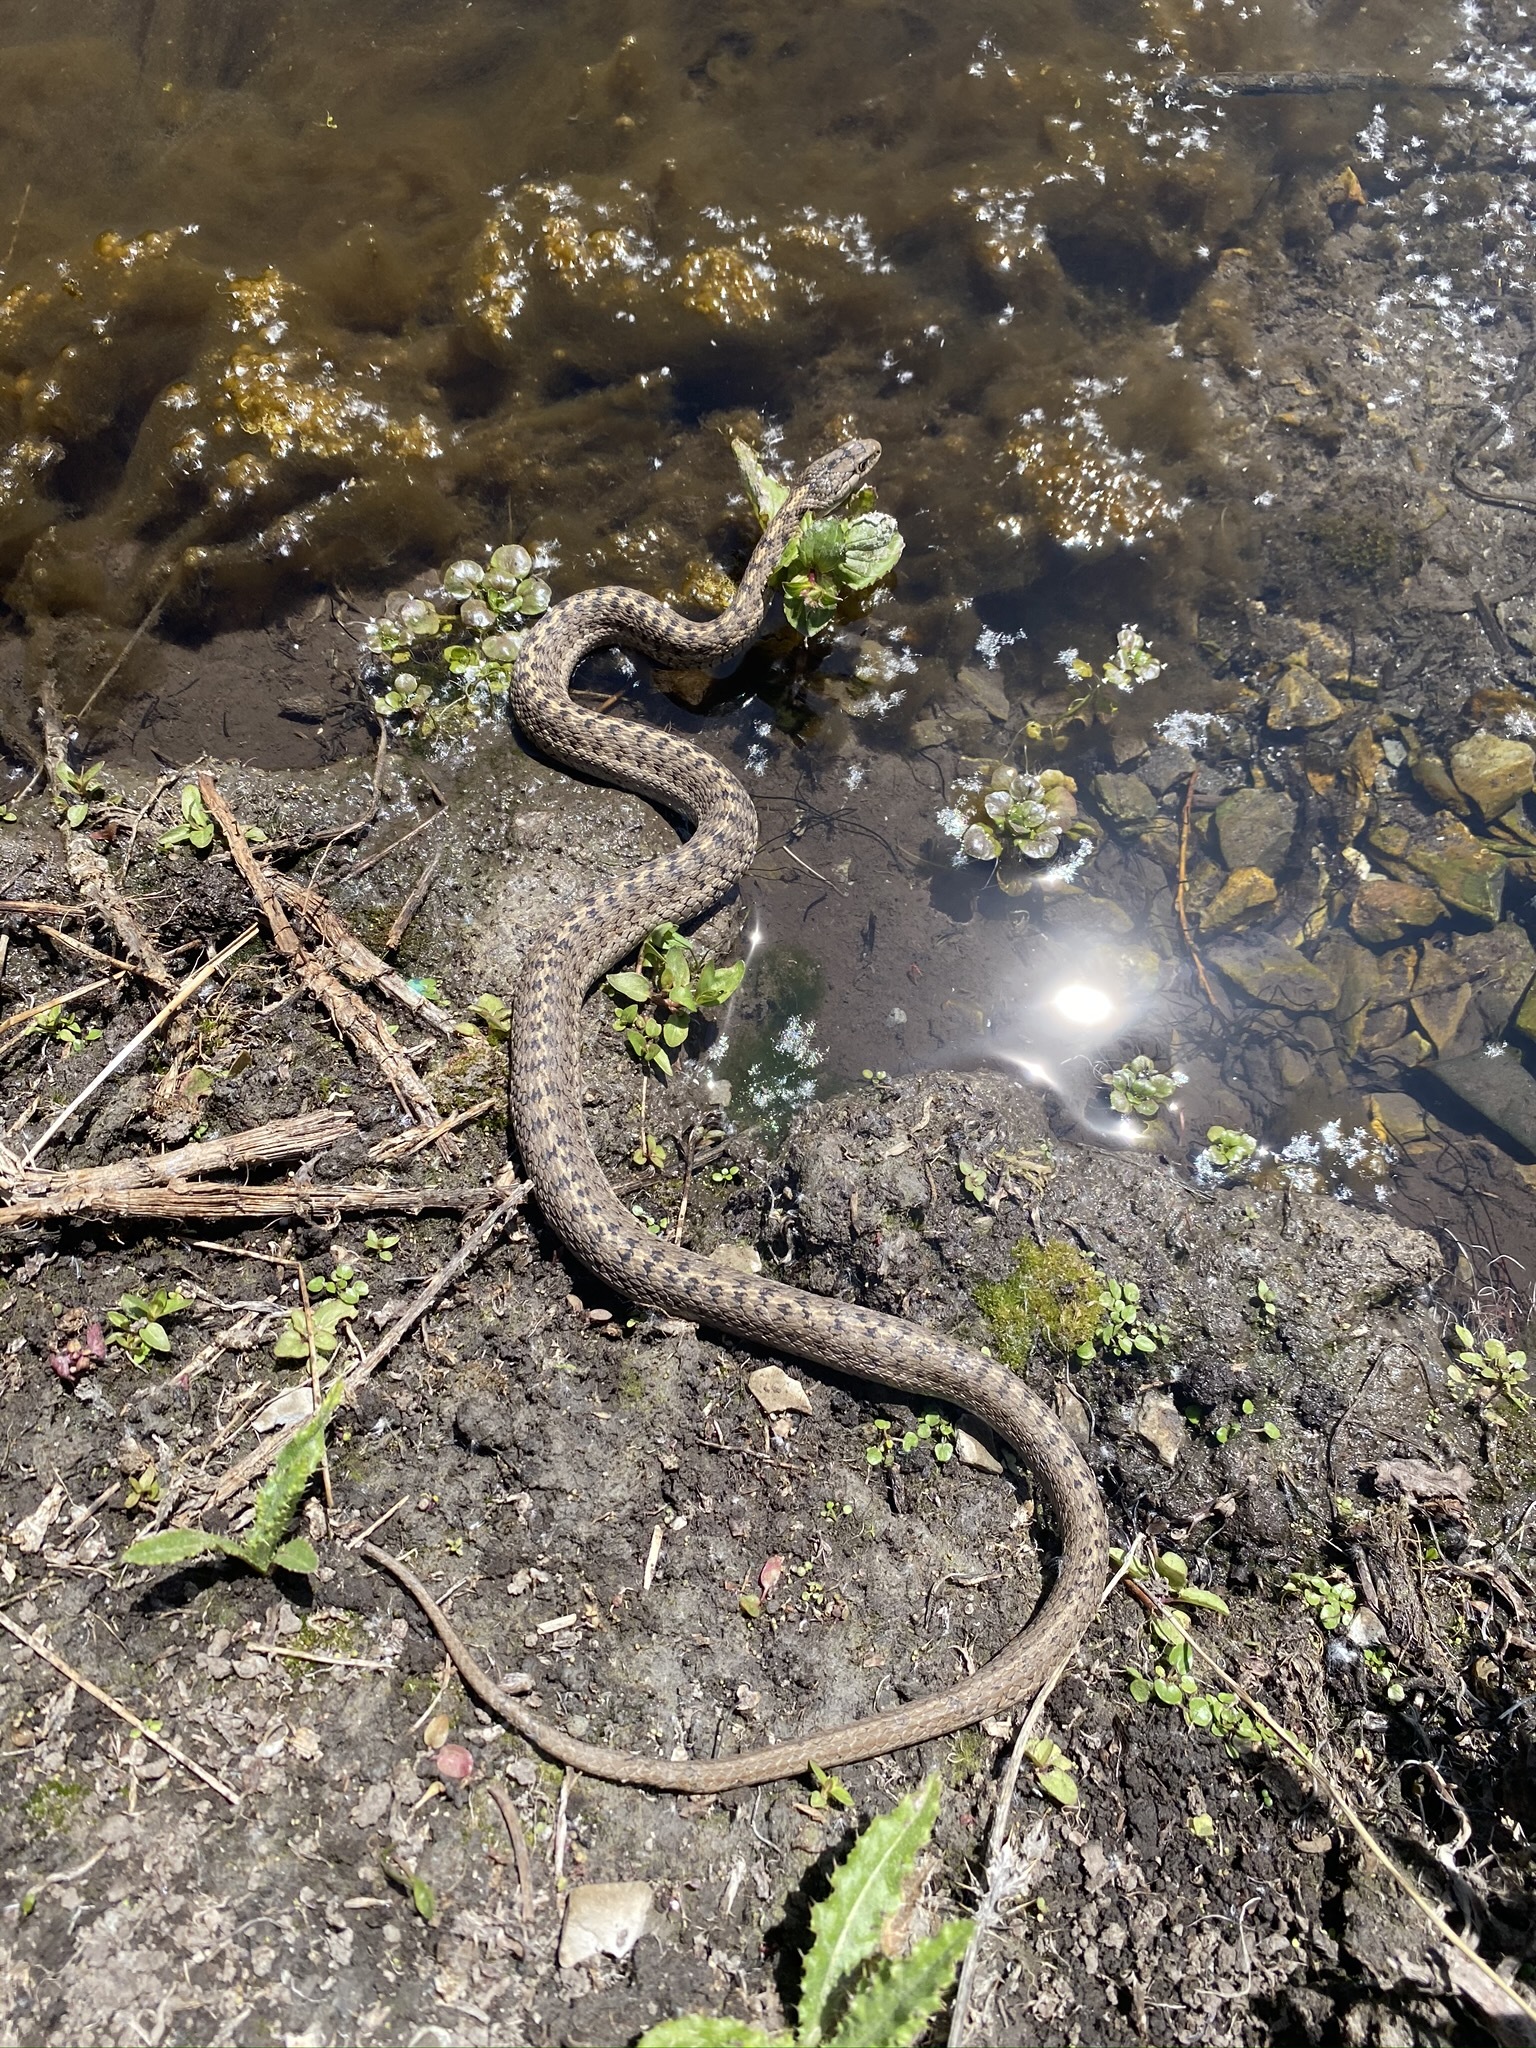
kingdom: Animalia
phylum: Chordata
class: Squamata
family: Colubridae
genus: Thamnophis
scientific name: Thamnophis elegans
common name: Western terrestrial garter snake
